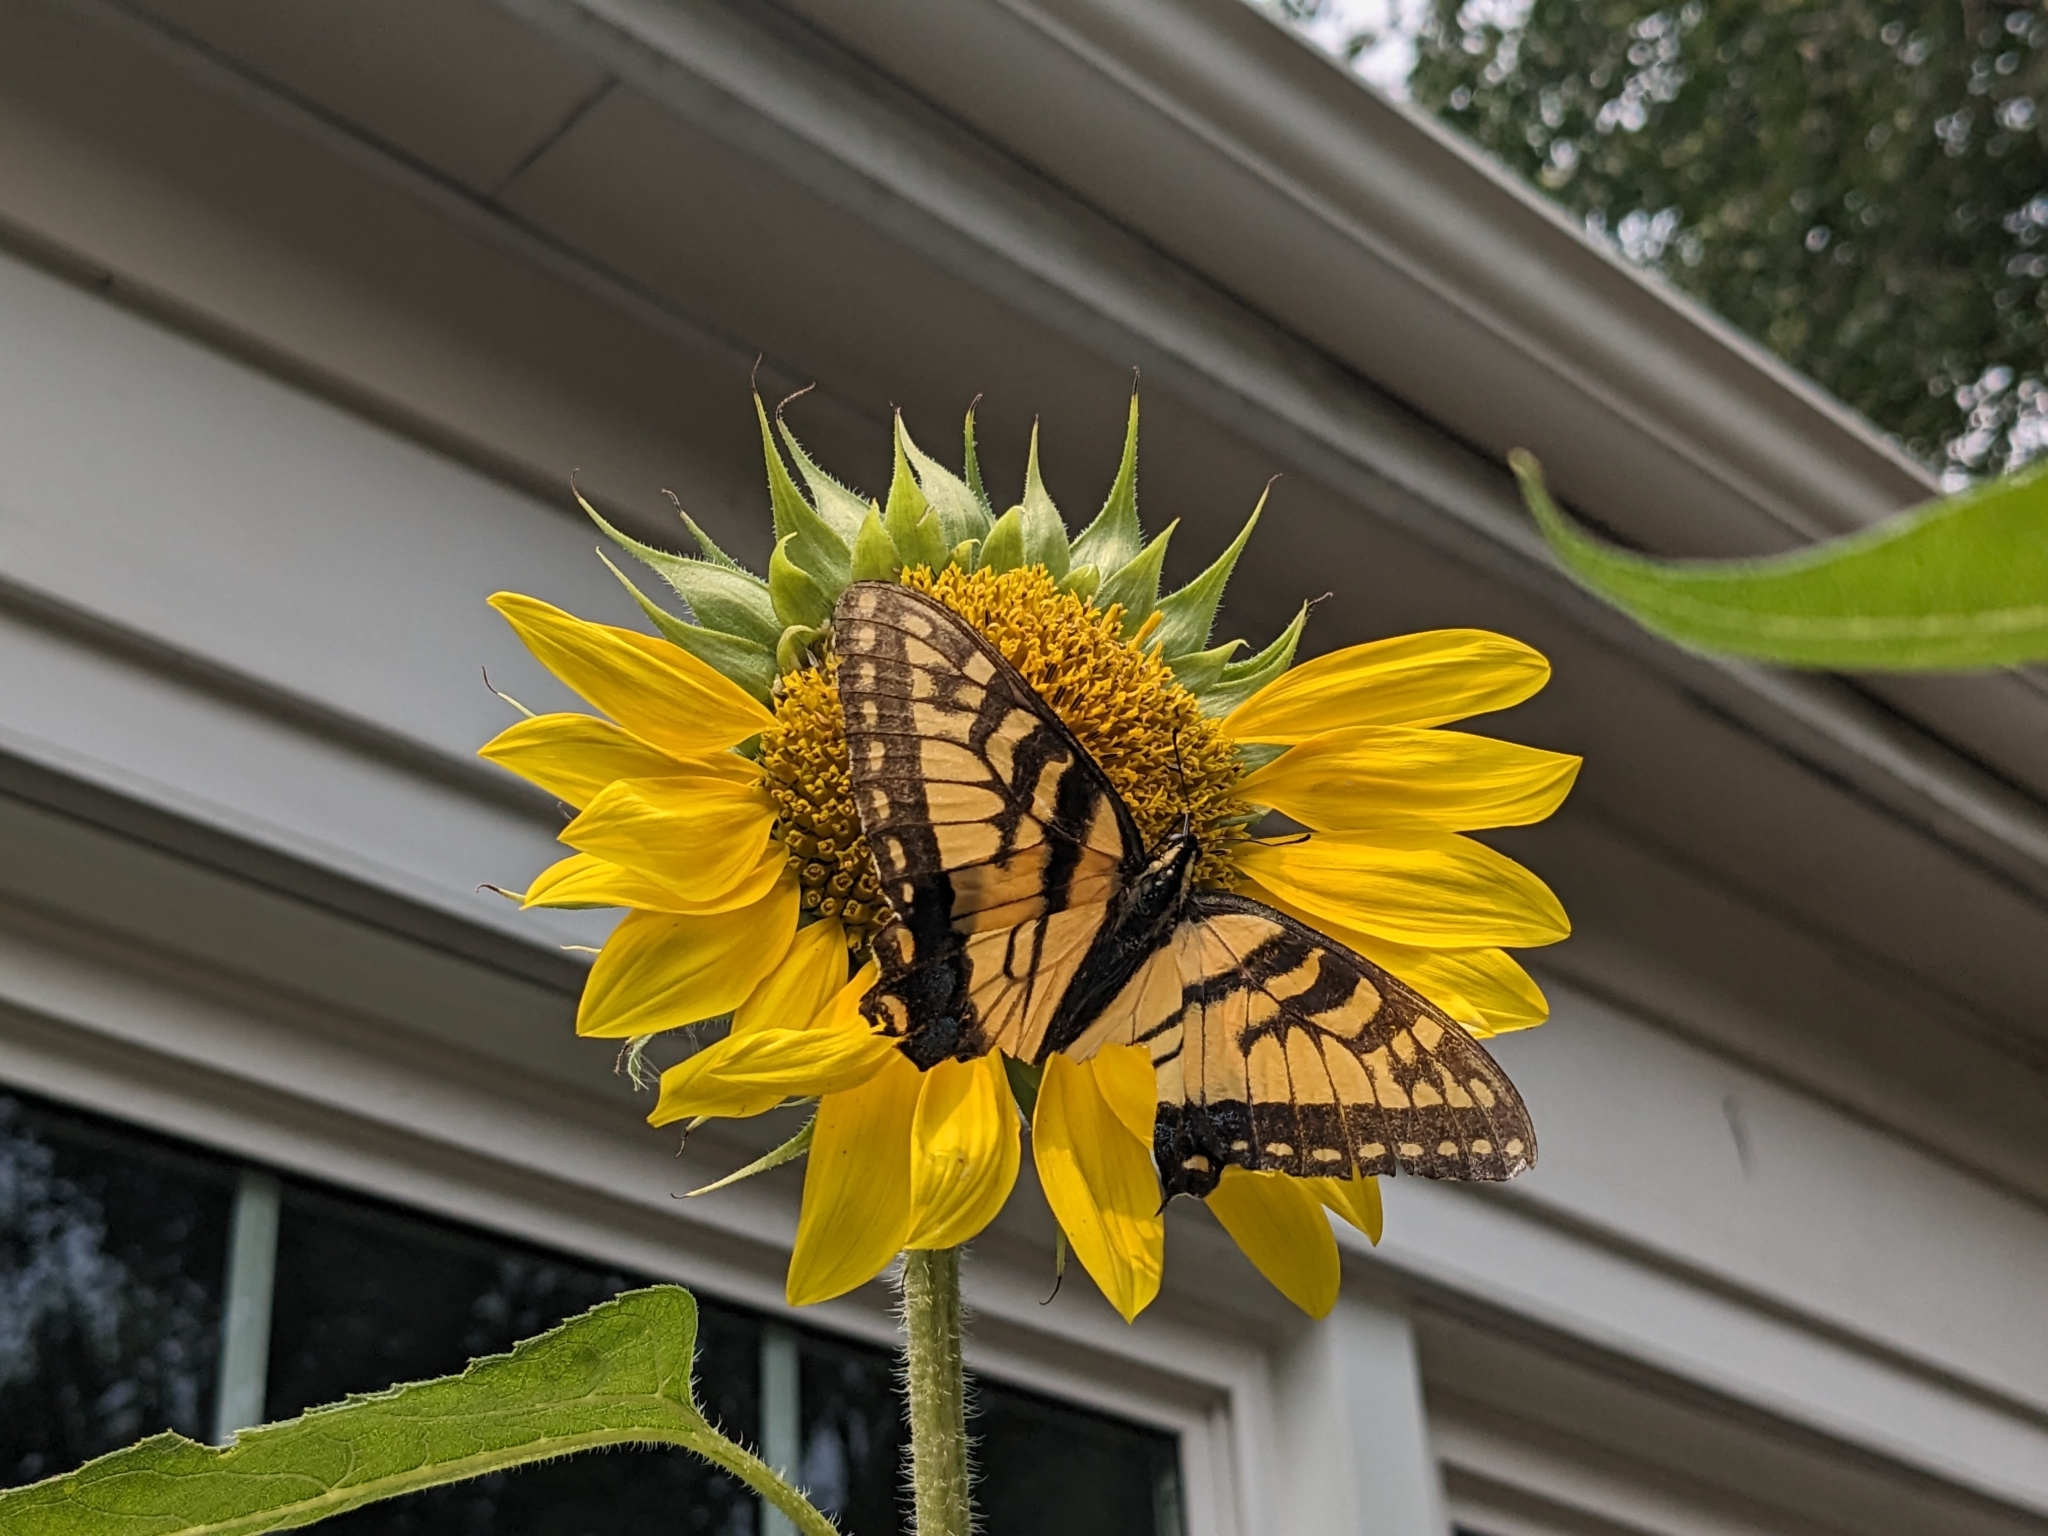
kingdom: Animalia
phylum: Arthropoda
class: Insecta
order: Lepidoptera
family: Papilionidae
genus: Papilio
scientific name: Papilio glaucus
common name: Tiger swallowtail
